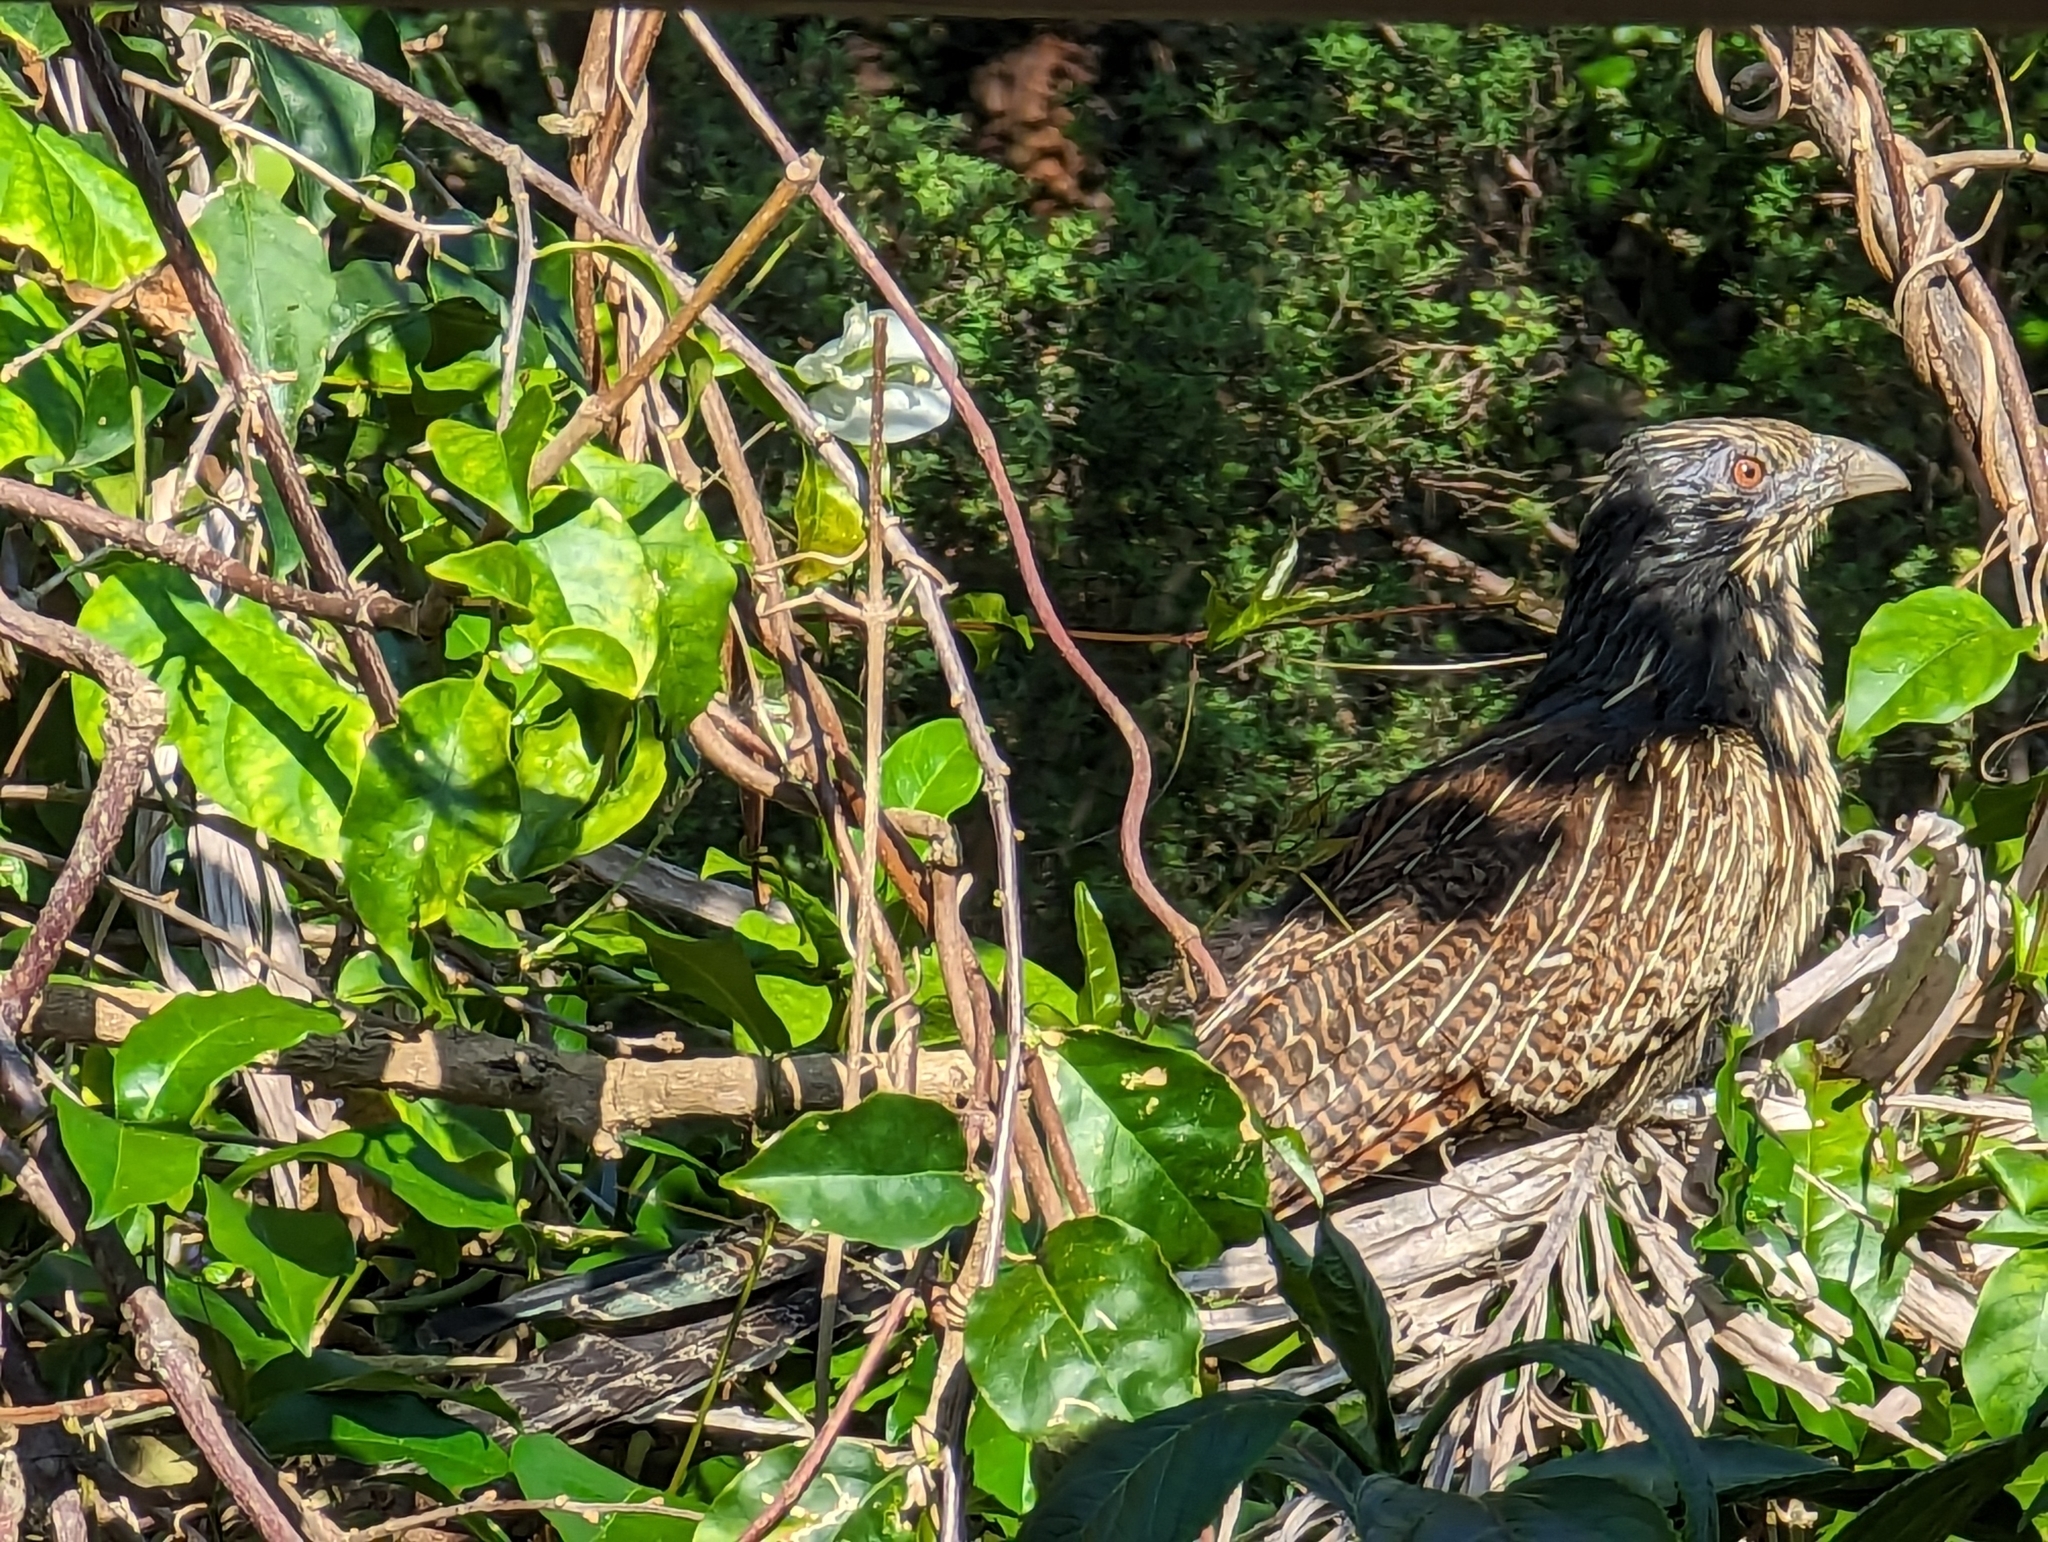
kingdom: Animalia
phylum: Chordata
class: Aves
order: Cuculiformes
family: Cuculidae
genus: Centropus
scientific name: Centropus phasianinus
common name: Pheasant coucal
